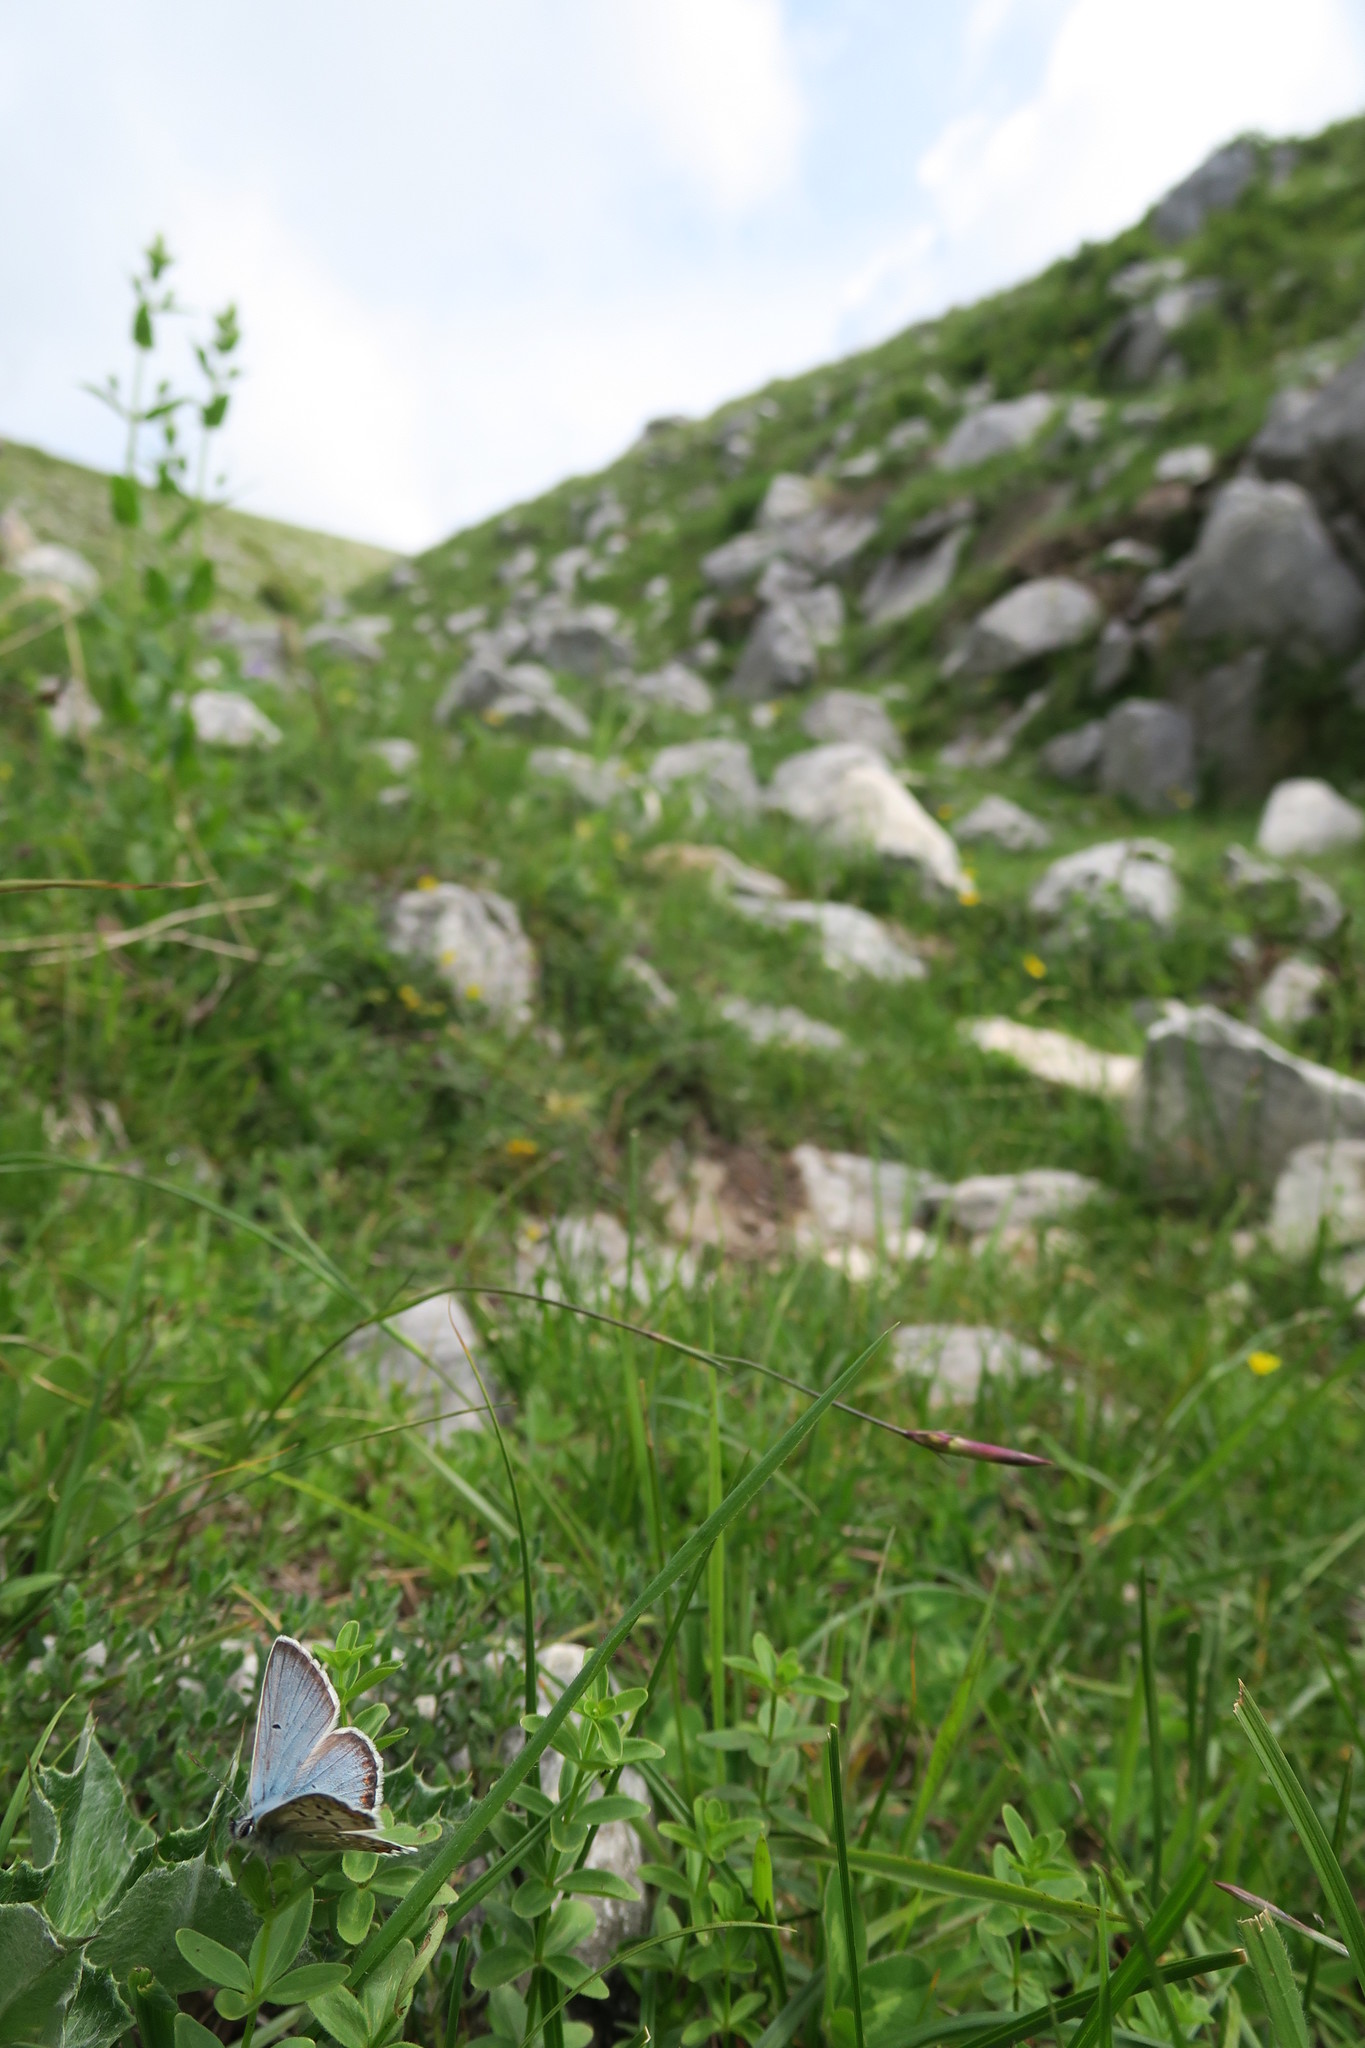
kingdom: Animalia
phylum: Arthropoda
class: Insecta
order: Lepidoptera
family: Lycaenidae
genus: Polyommatus
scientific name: Polyommatus eros
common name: Eros blue
